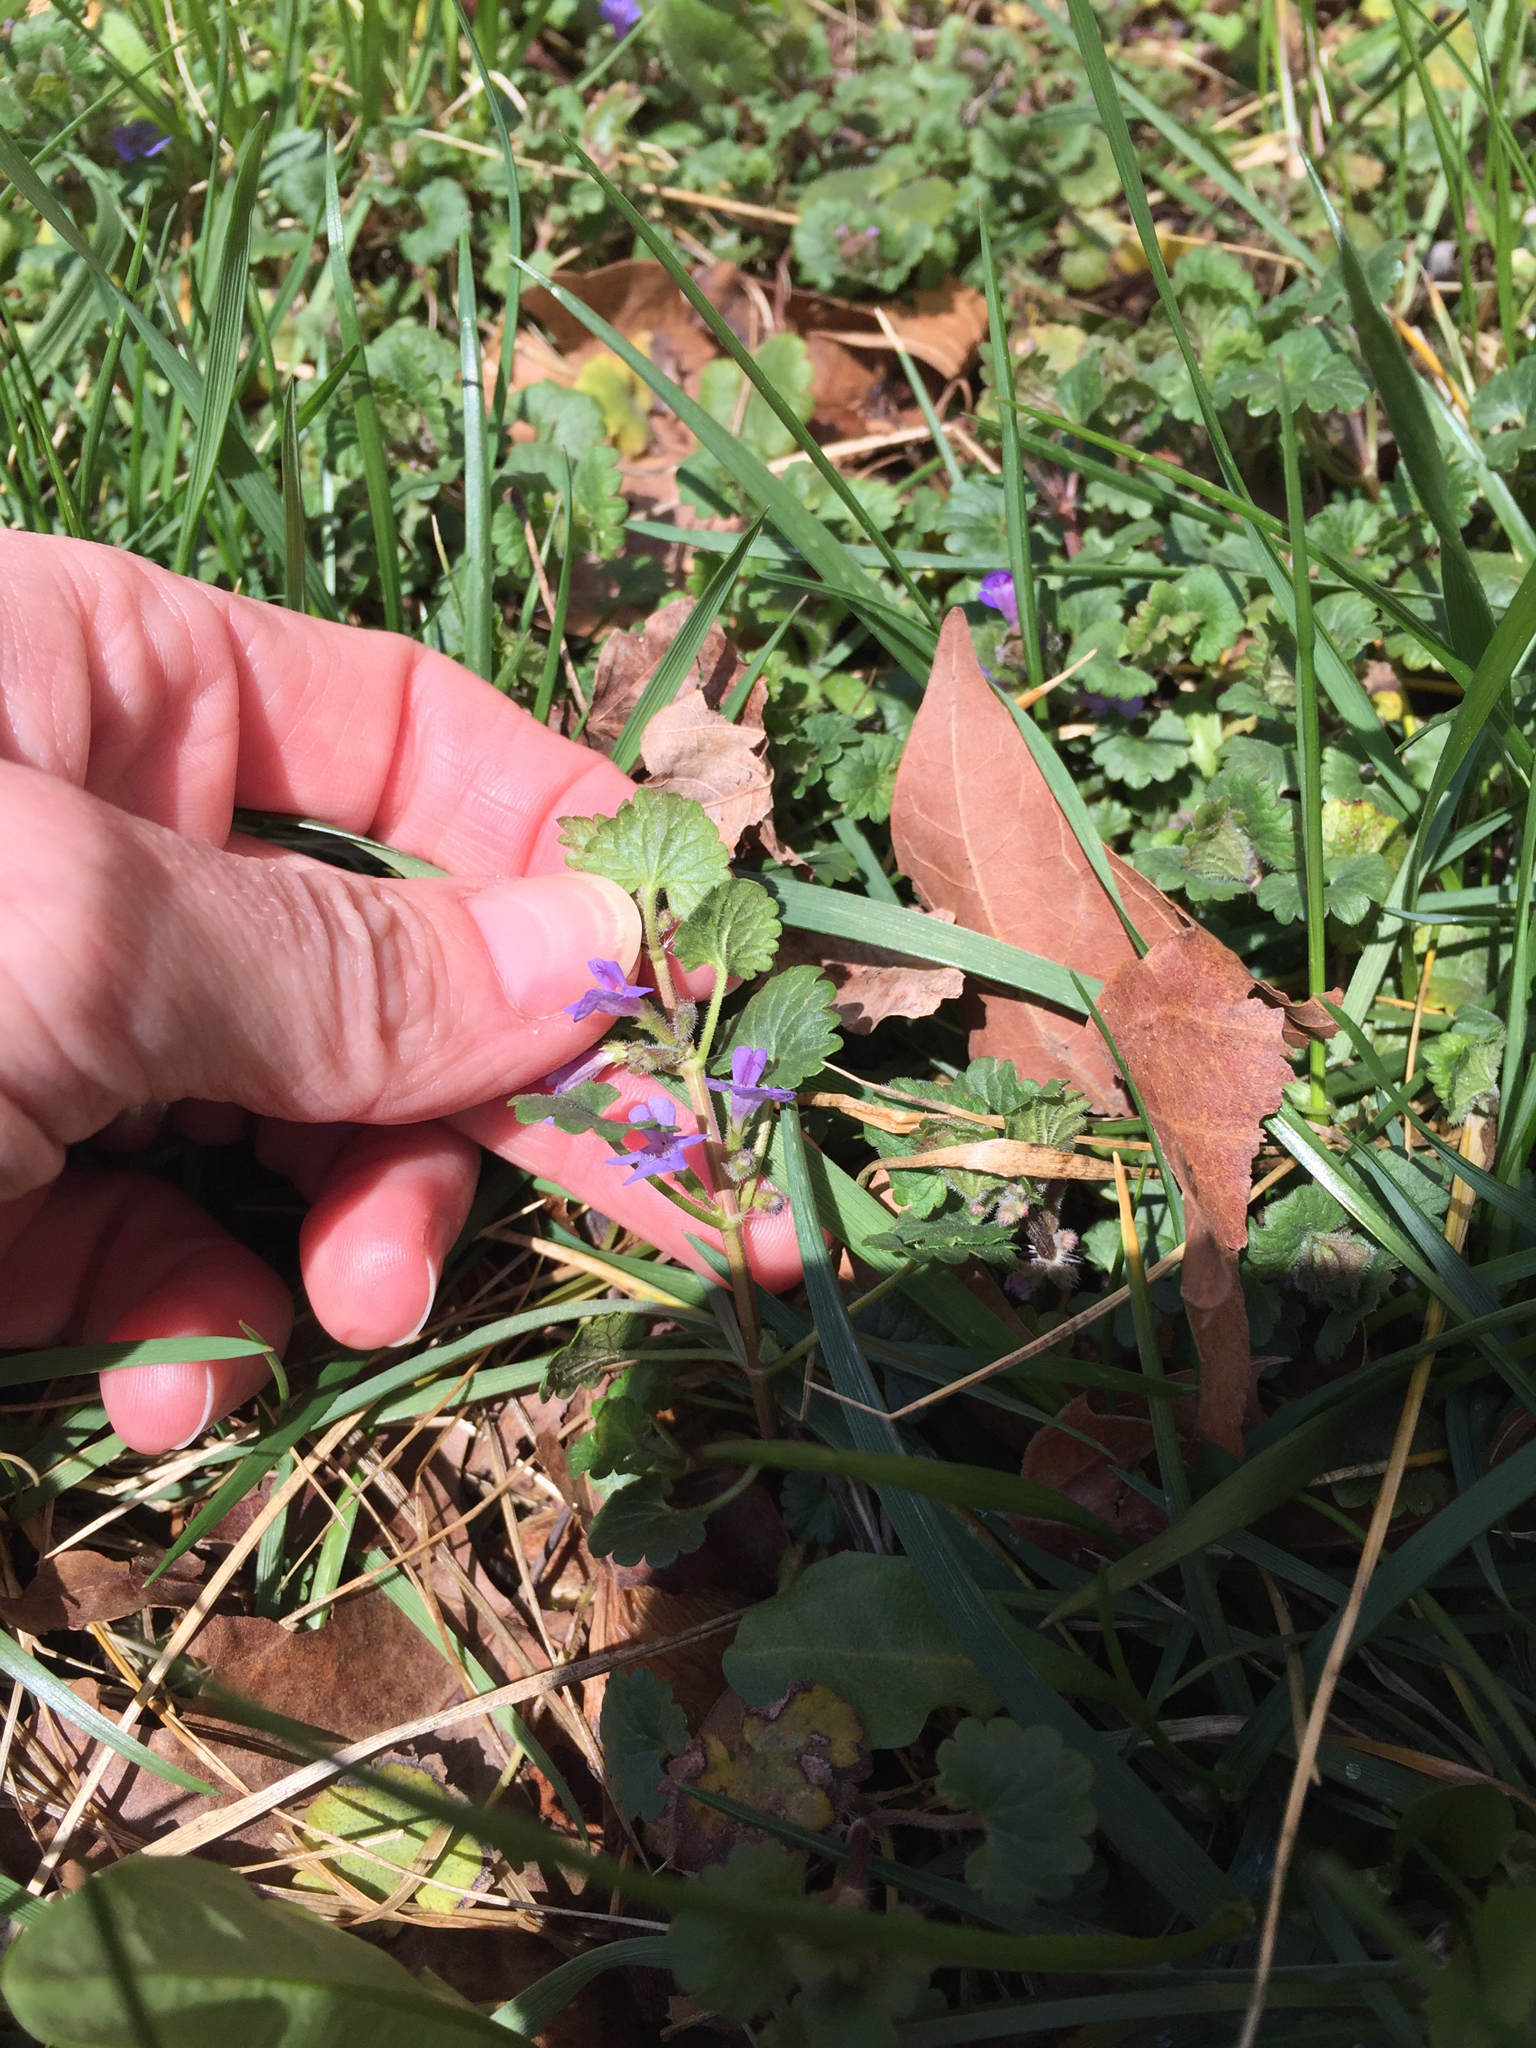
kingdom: Plantae
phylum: Tracheophyta
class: Magnoliopsida
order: Lamiales
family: Lamiaceae
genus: Glechoma
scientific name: Glechoma hederacea
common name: Ground ivy
